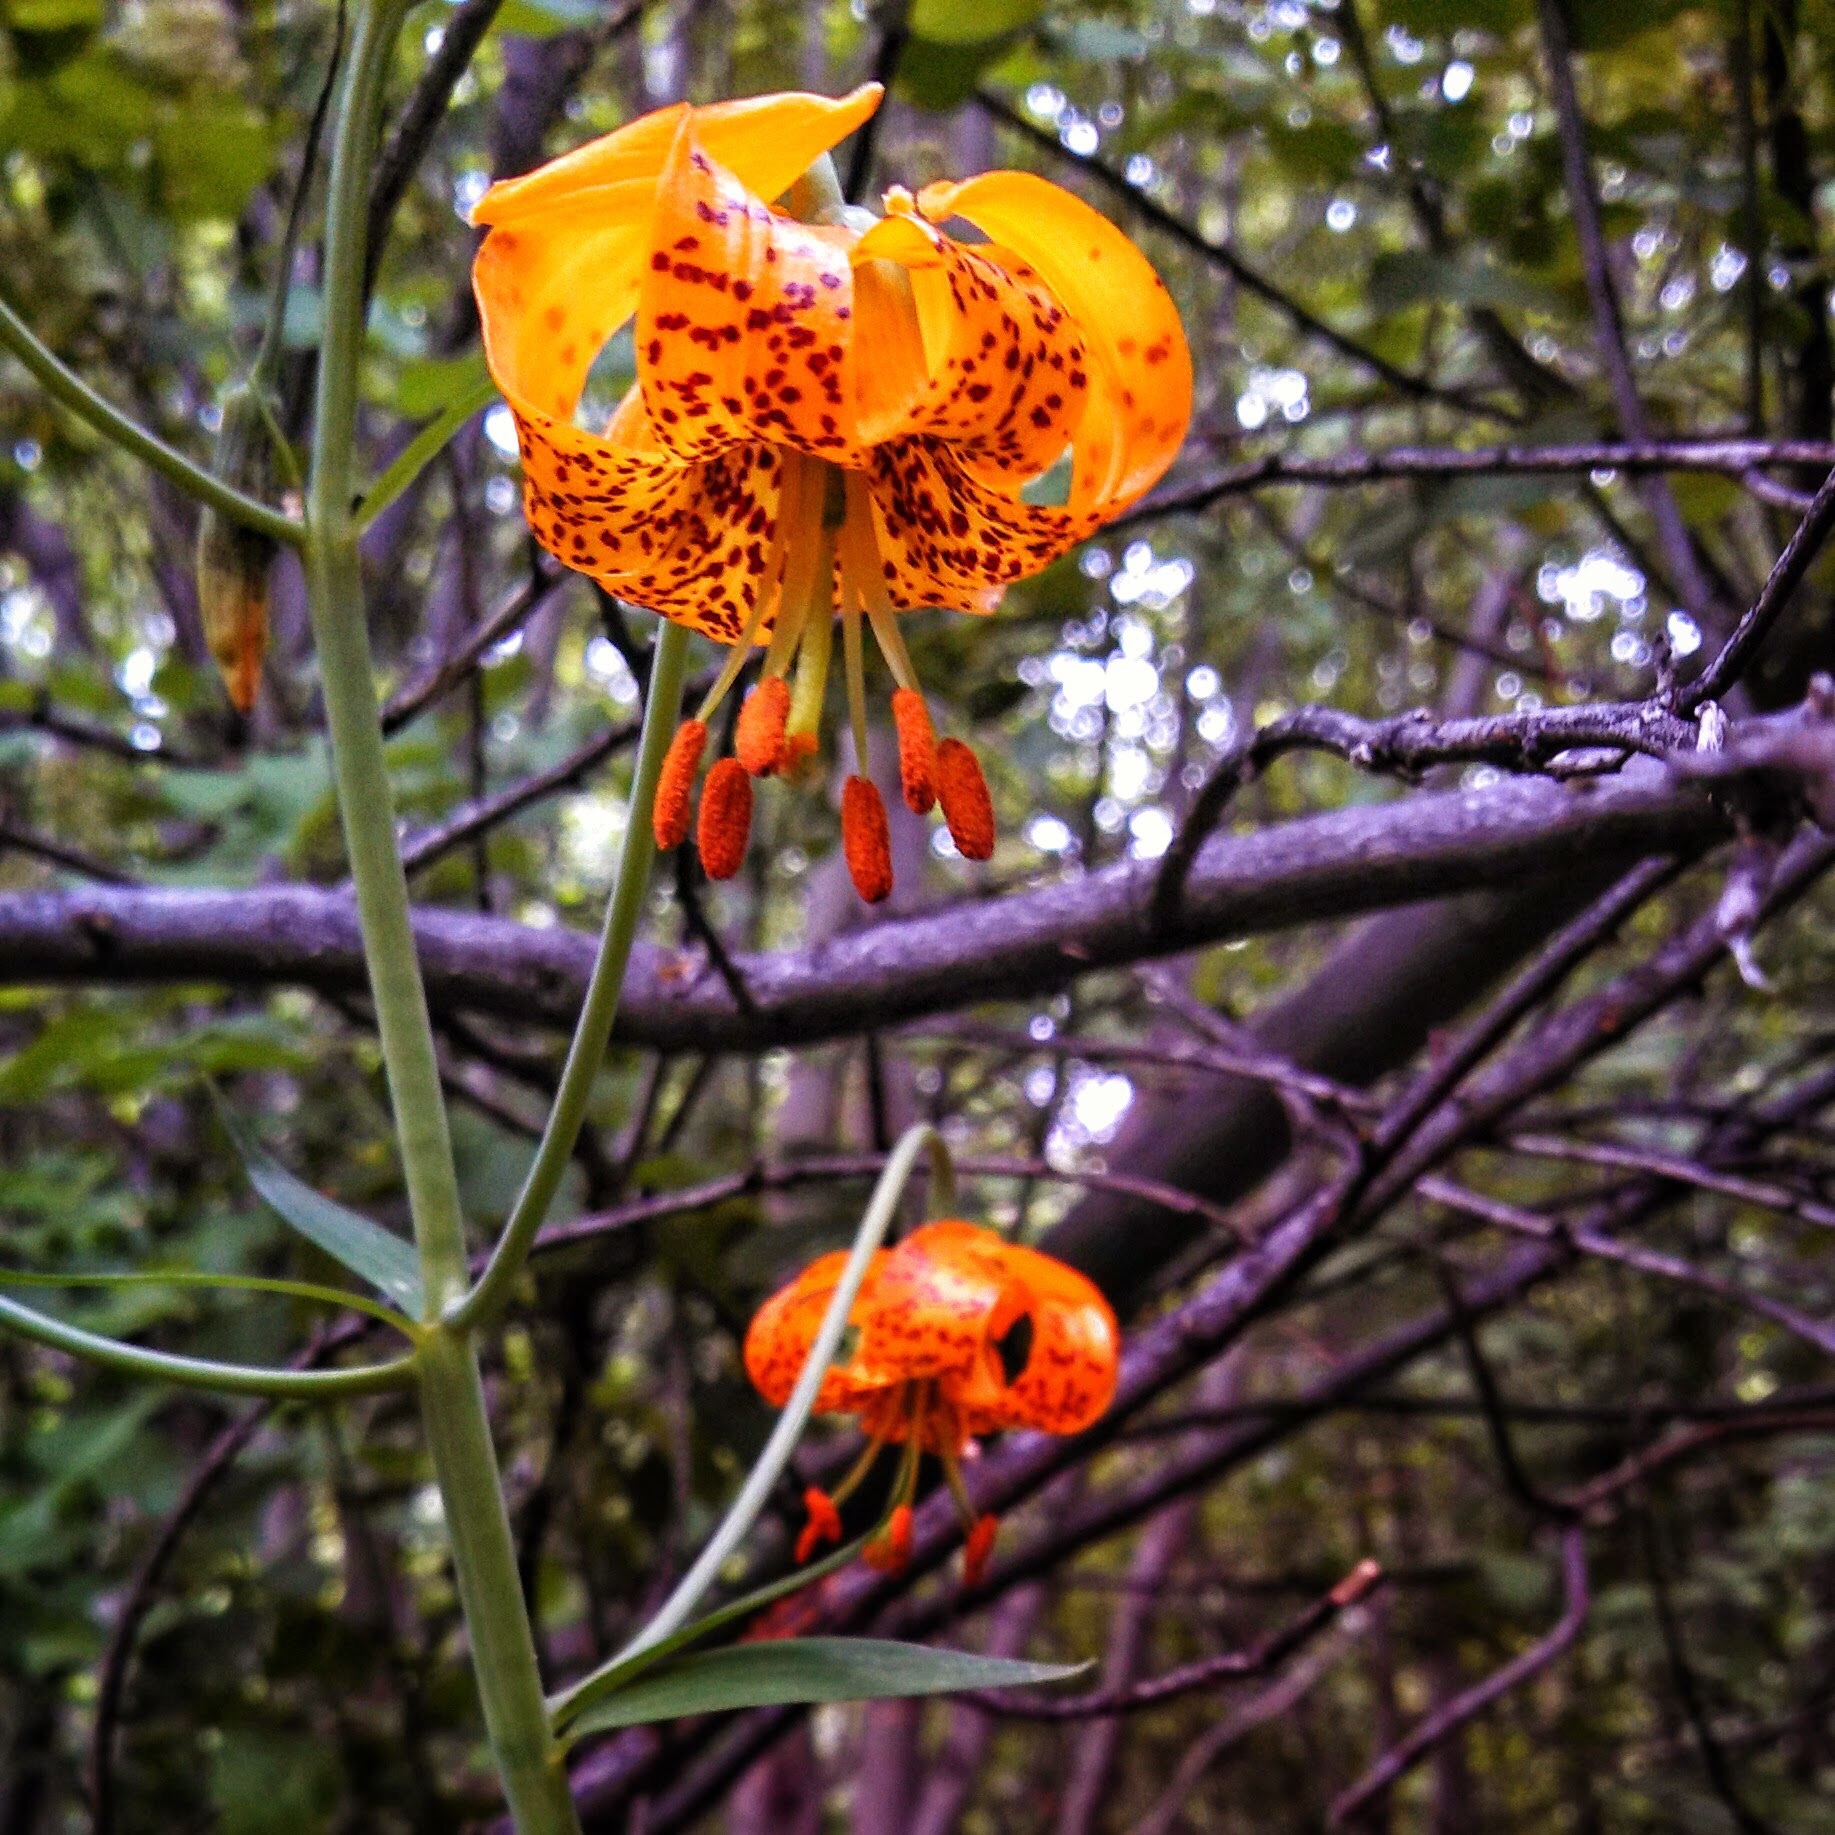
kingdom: Plantae
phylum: Tracheophyta
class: Liliopsida
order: Liliales
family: Liliaceae
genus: Lilium
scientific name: Lilium columbianum
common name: Columbia lily
